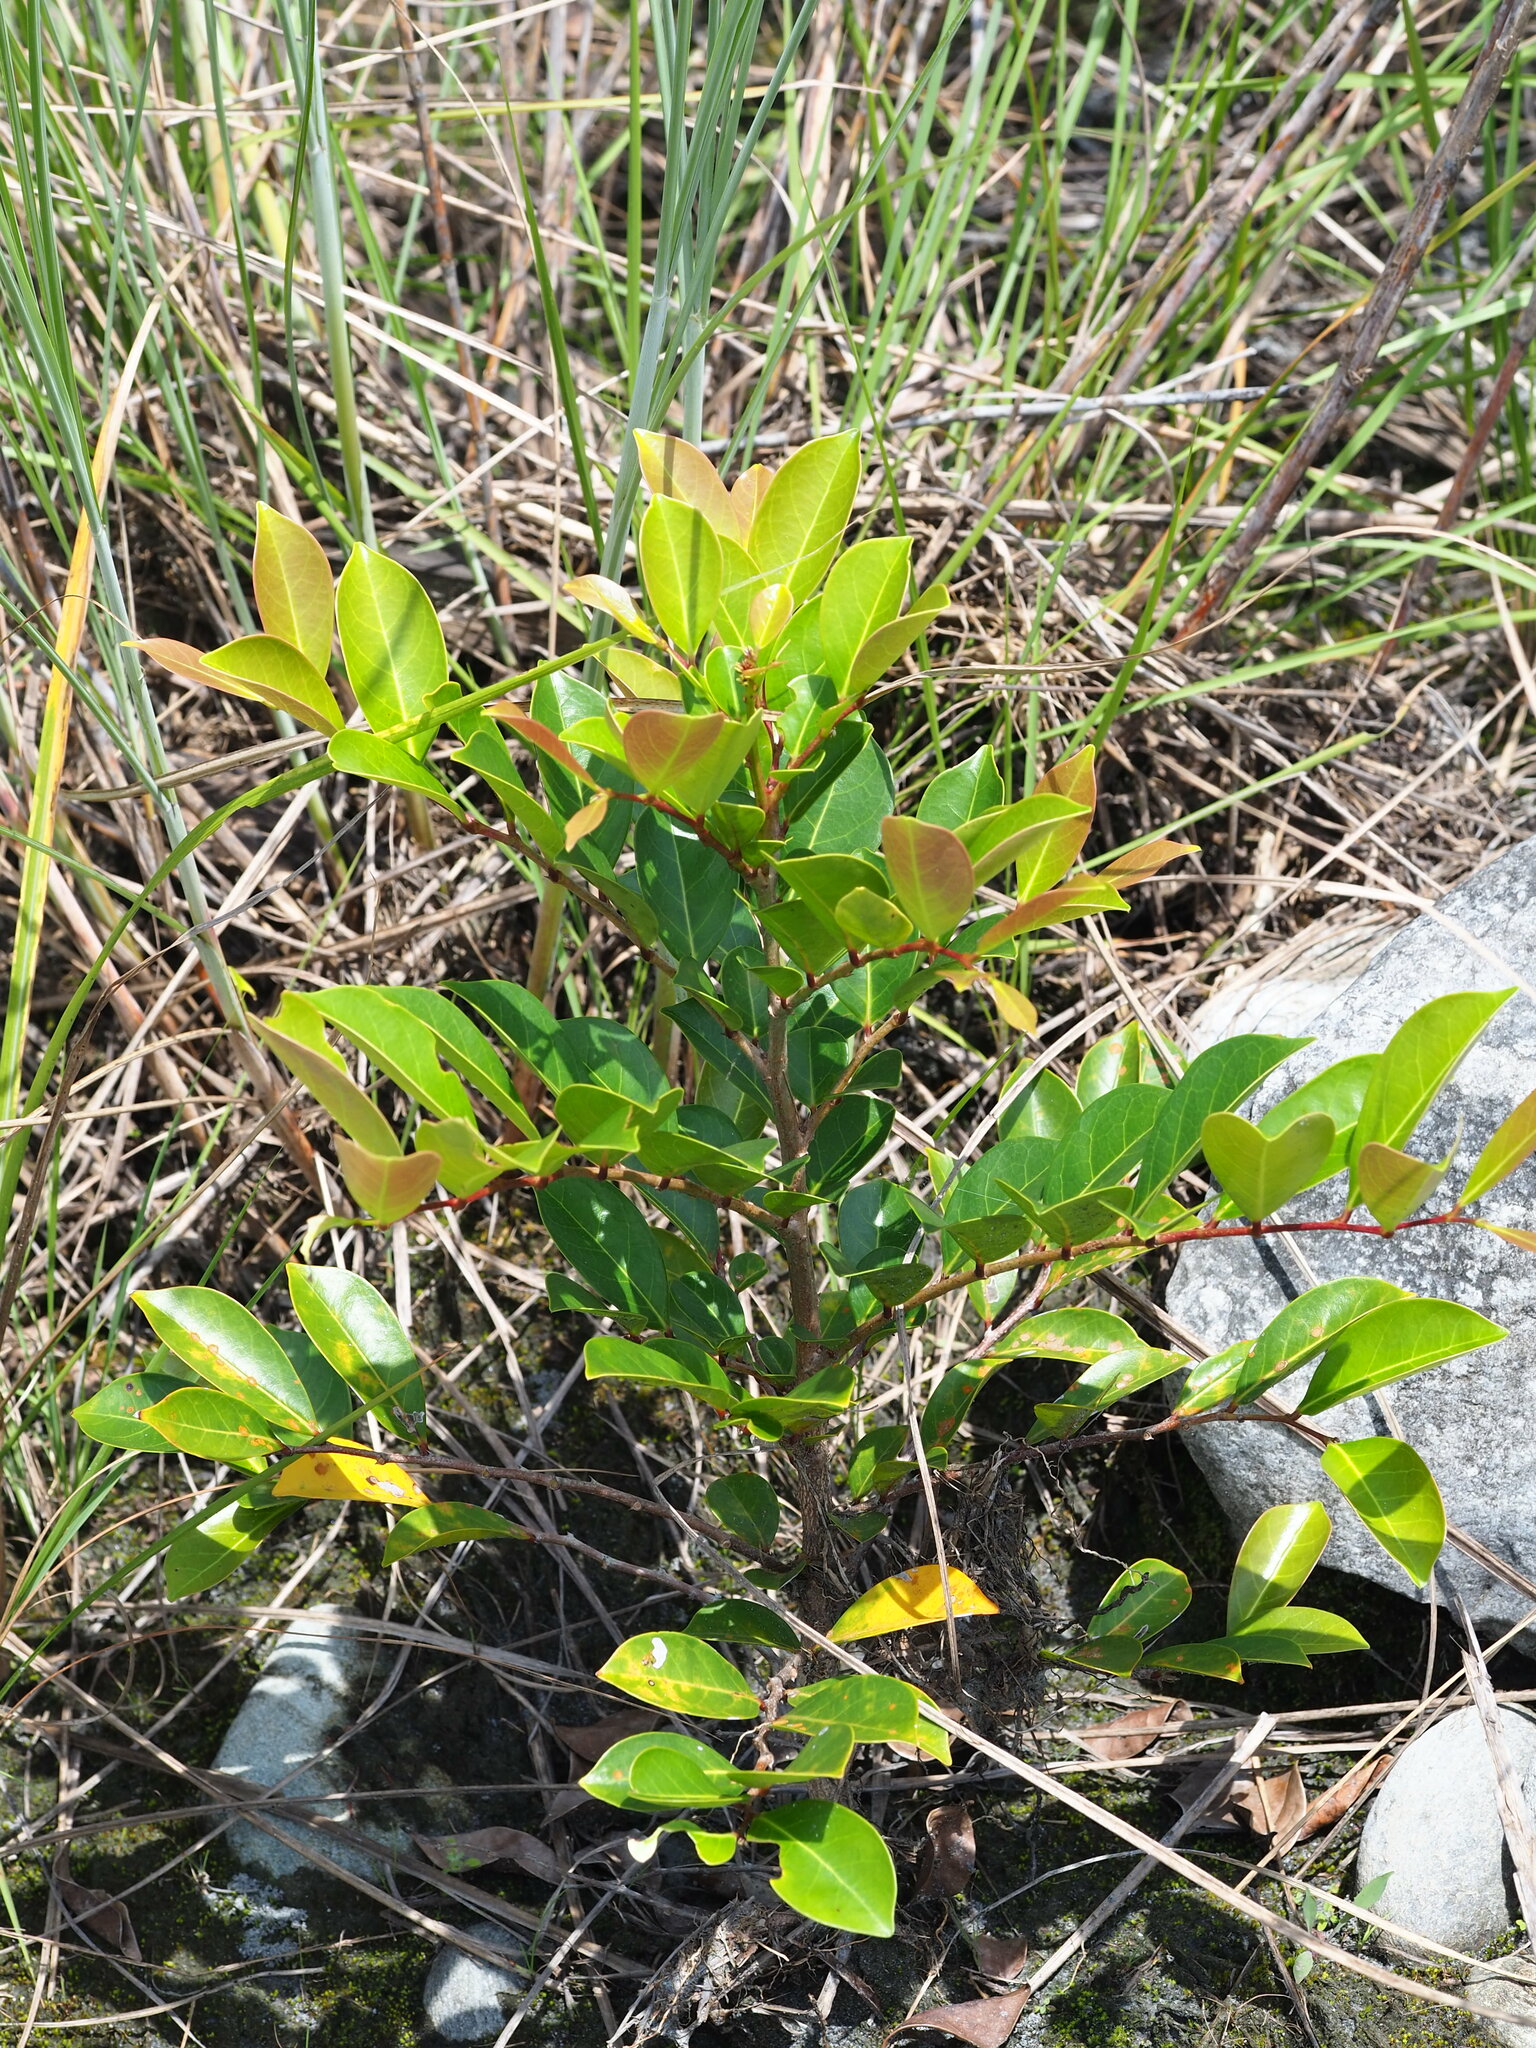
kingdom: Plantae
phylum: Tracheophyta
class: Magnoliopsida
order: Malpighiales
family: Phyllanthaceae
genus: Glochidion
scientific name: Glochidion rubrum
